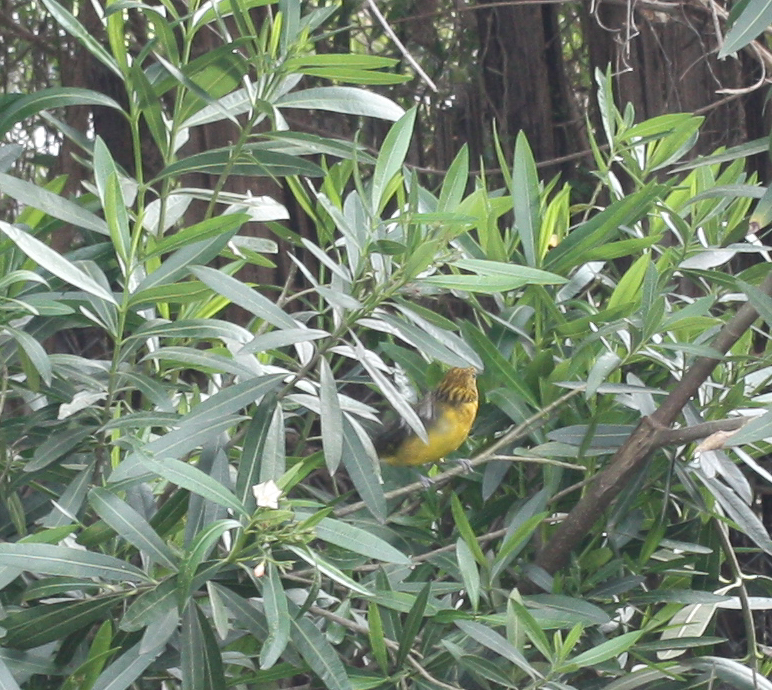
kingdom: Animalia
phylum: Chordata
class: Aves
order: Passeriformes
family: Cardinalidae
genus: Pheucticus
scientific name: Pheucticus chrysogaster
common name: Golden grosbeak
